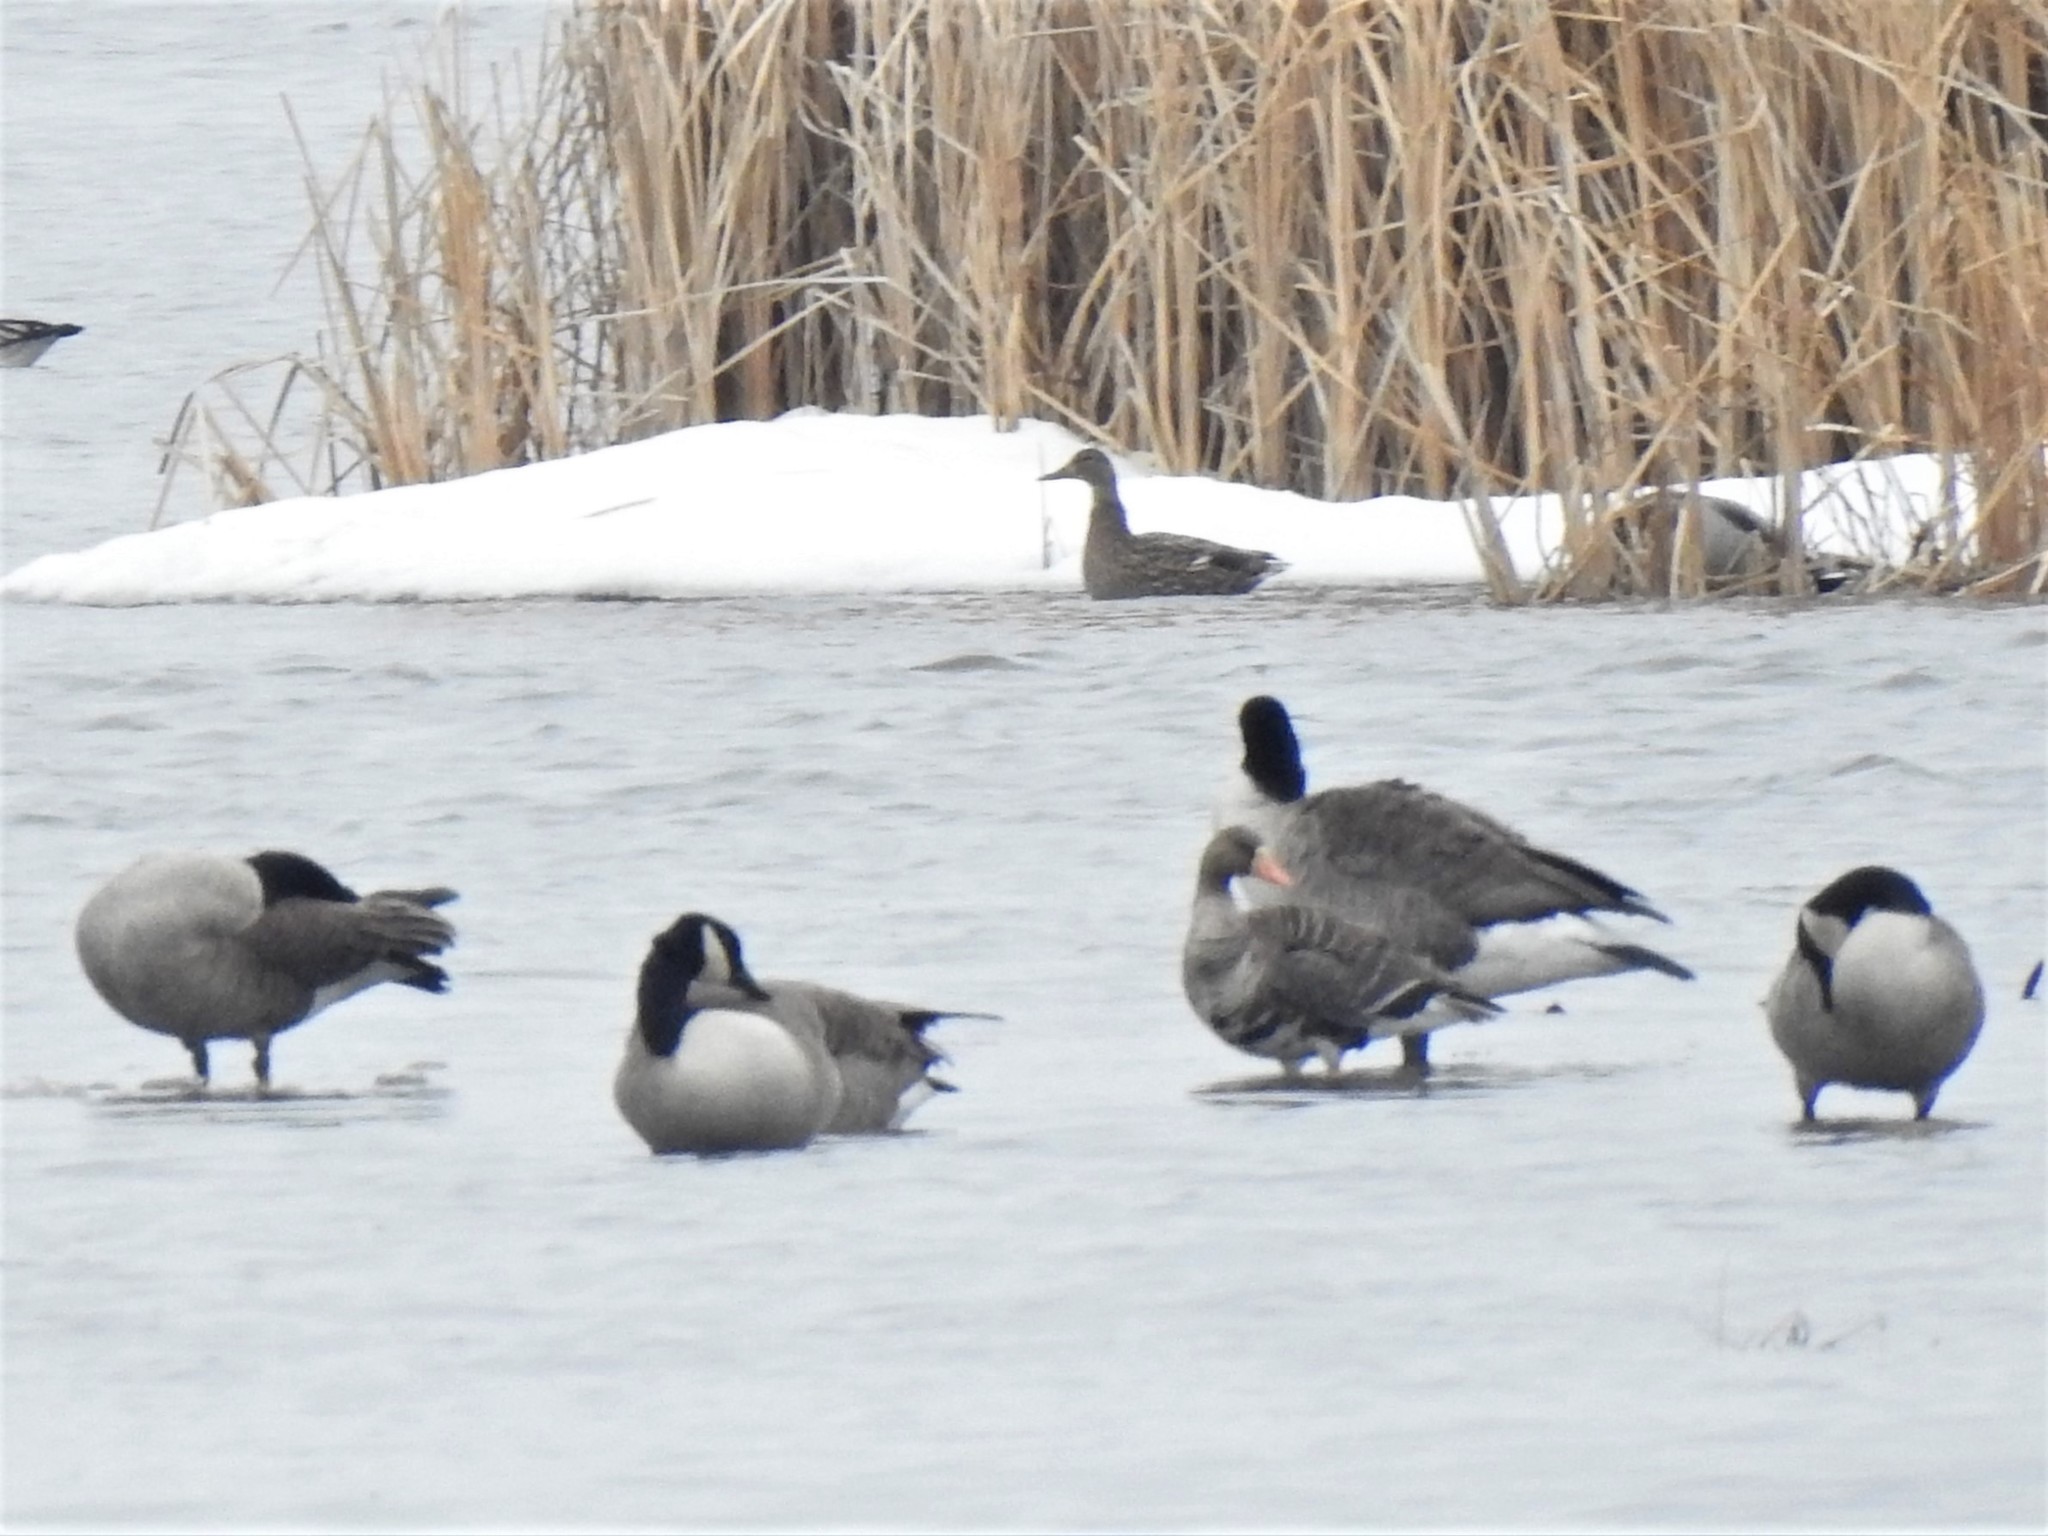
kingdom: Animalia
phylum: Chordata
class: Aves
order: Anseriformes
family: Anatidae
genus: Anser
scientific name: Anser albifrons
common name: Greater white-fronted goose
